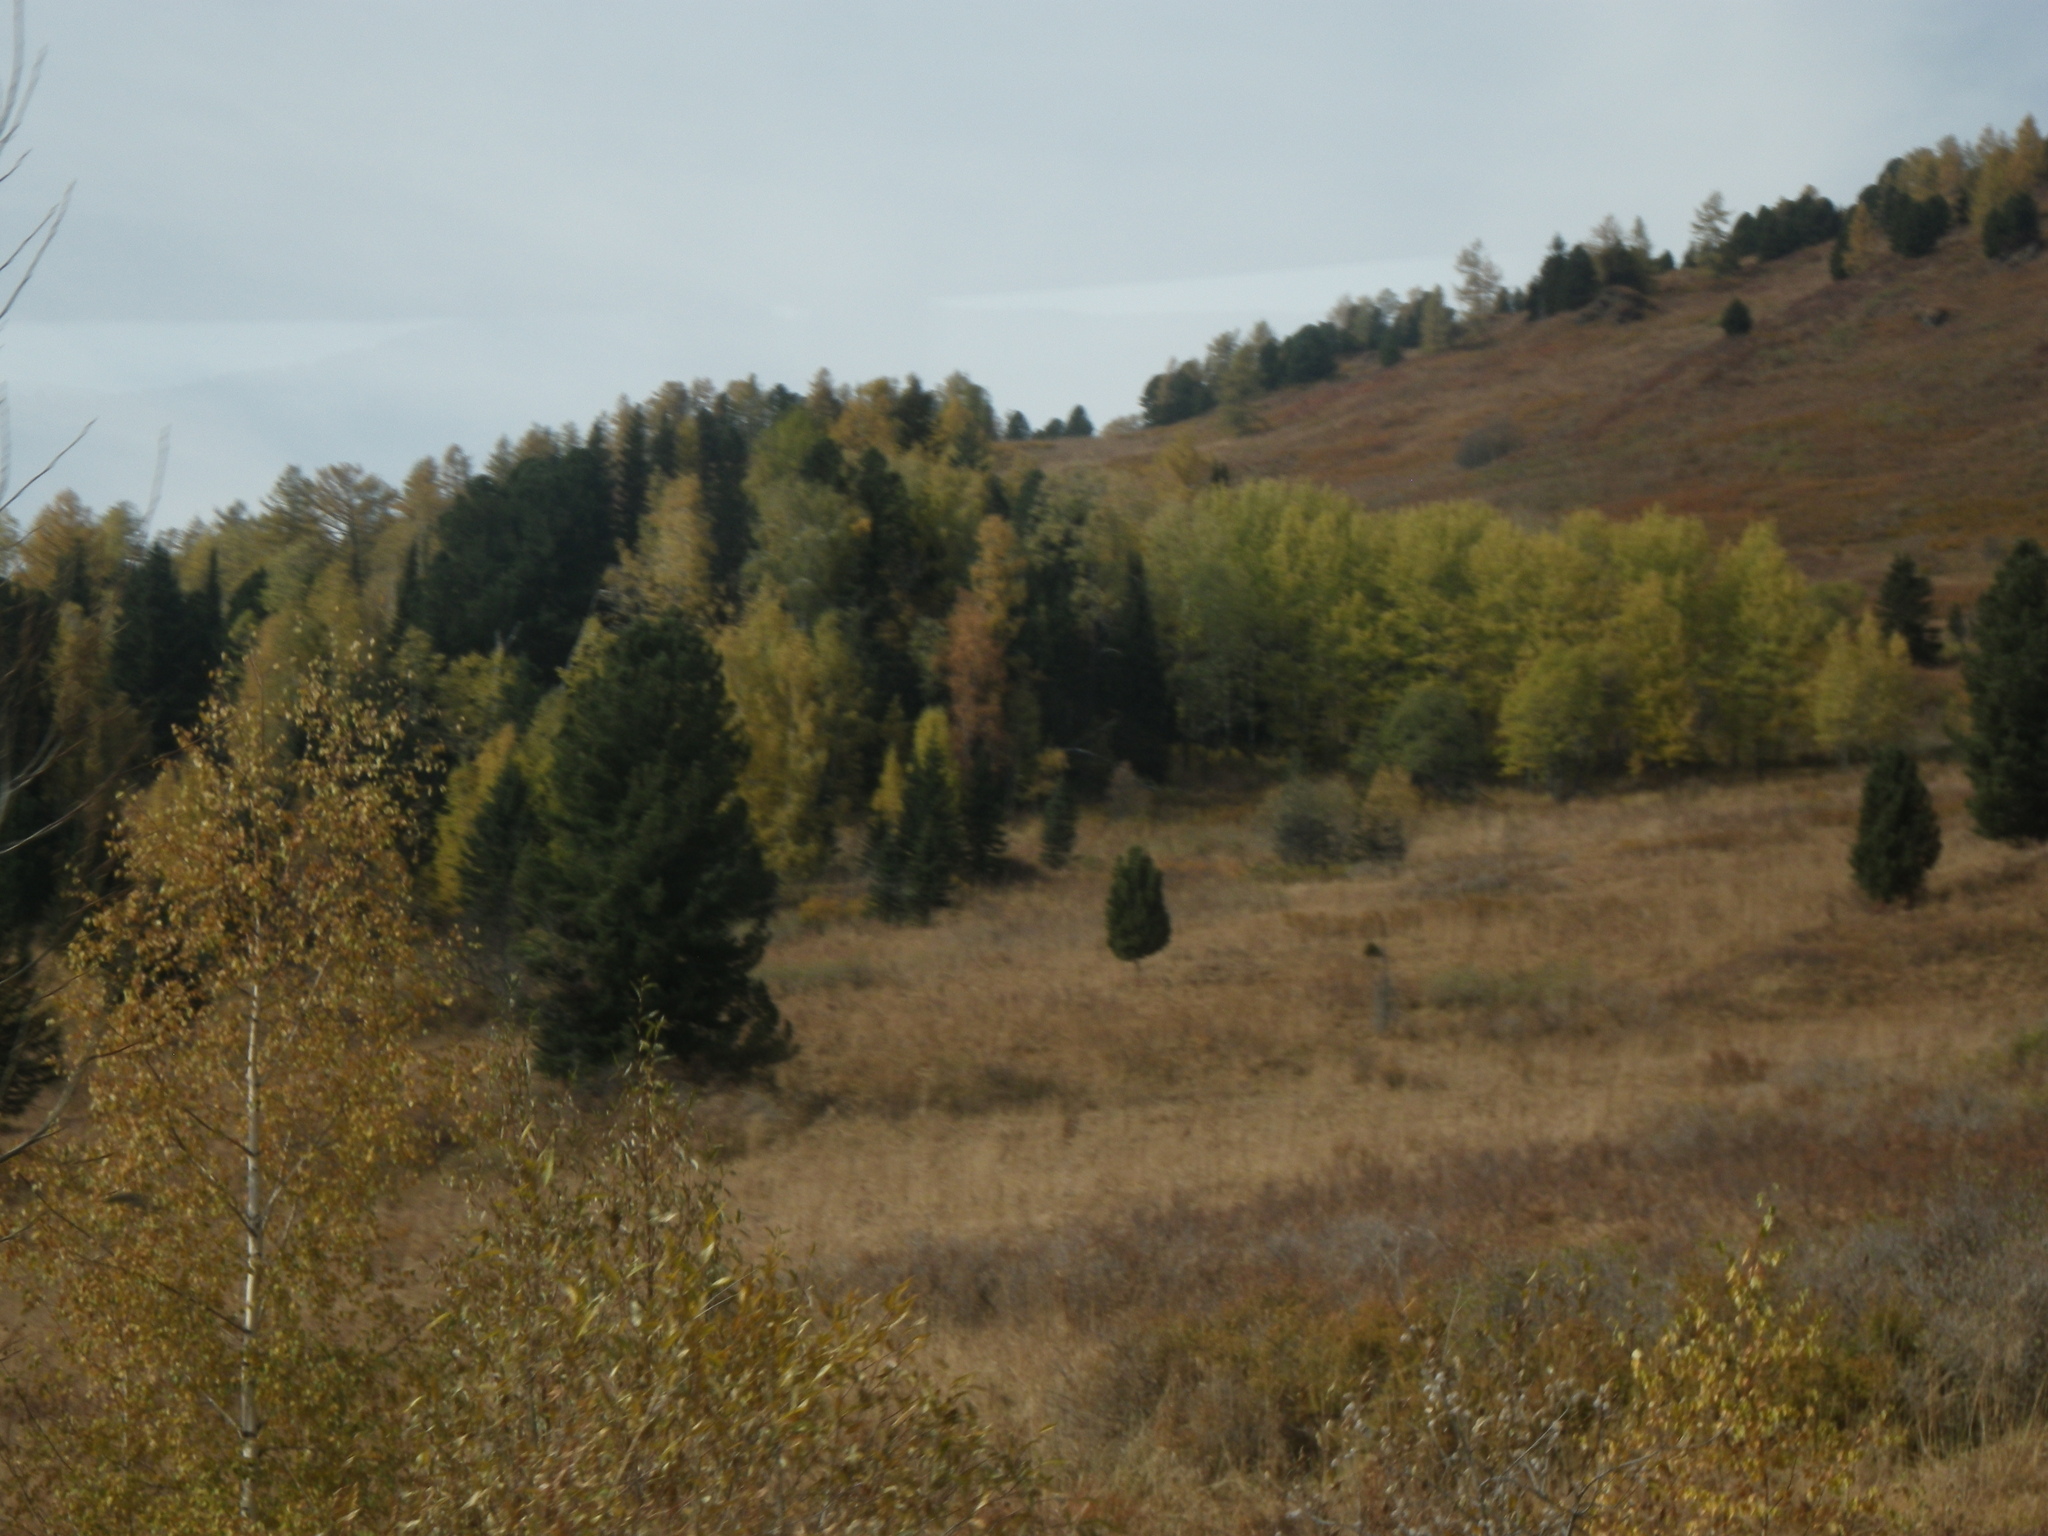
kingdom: Plantae
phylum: Tracheophyta
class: Pinopsida
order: Pinales
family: Pinaceae
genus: Pinus
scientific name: Pinus sibirica
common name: Siberian pine
